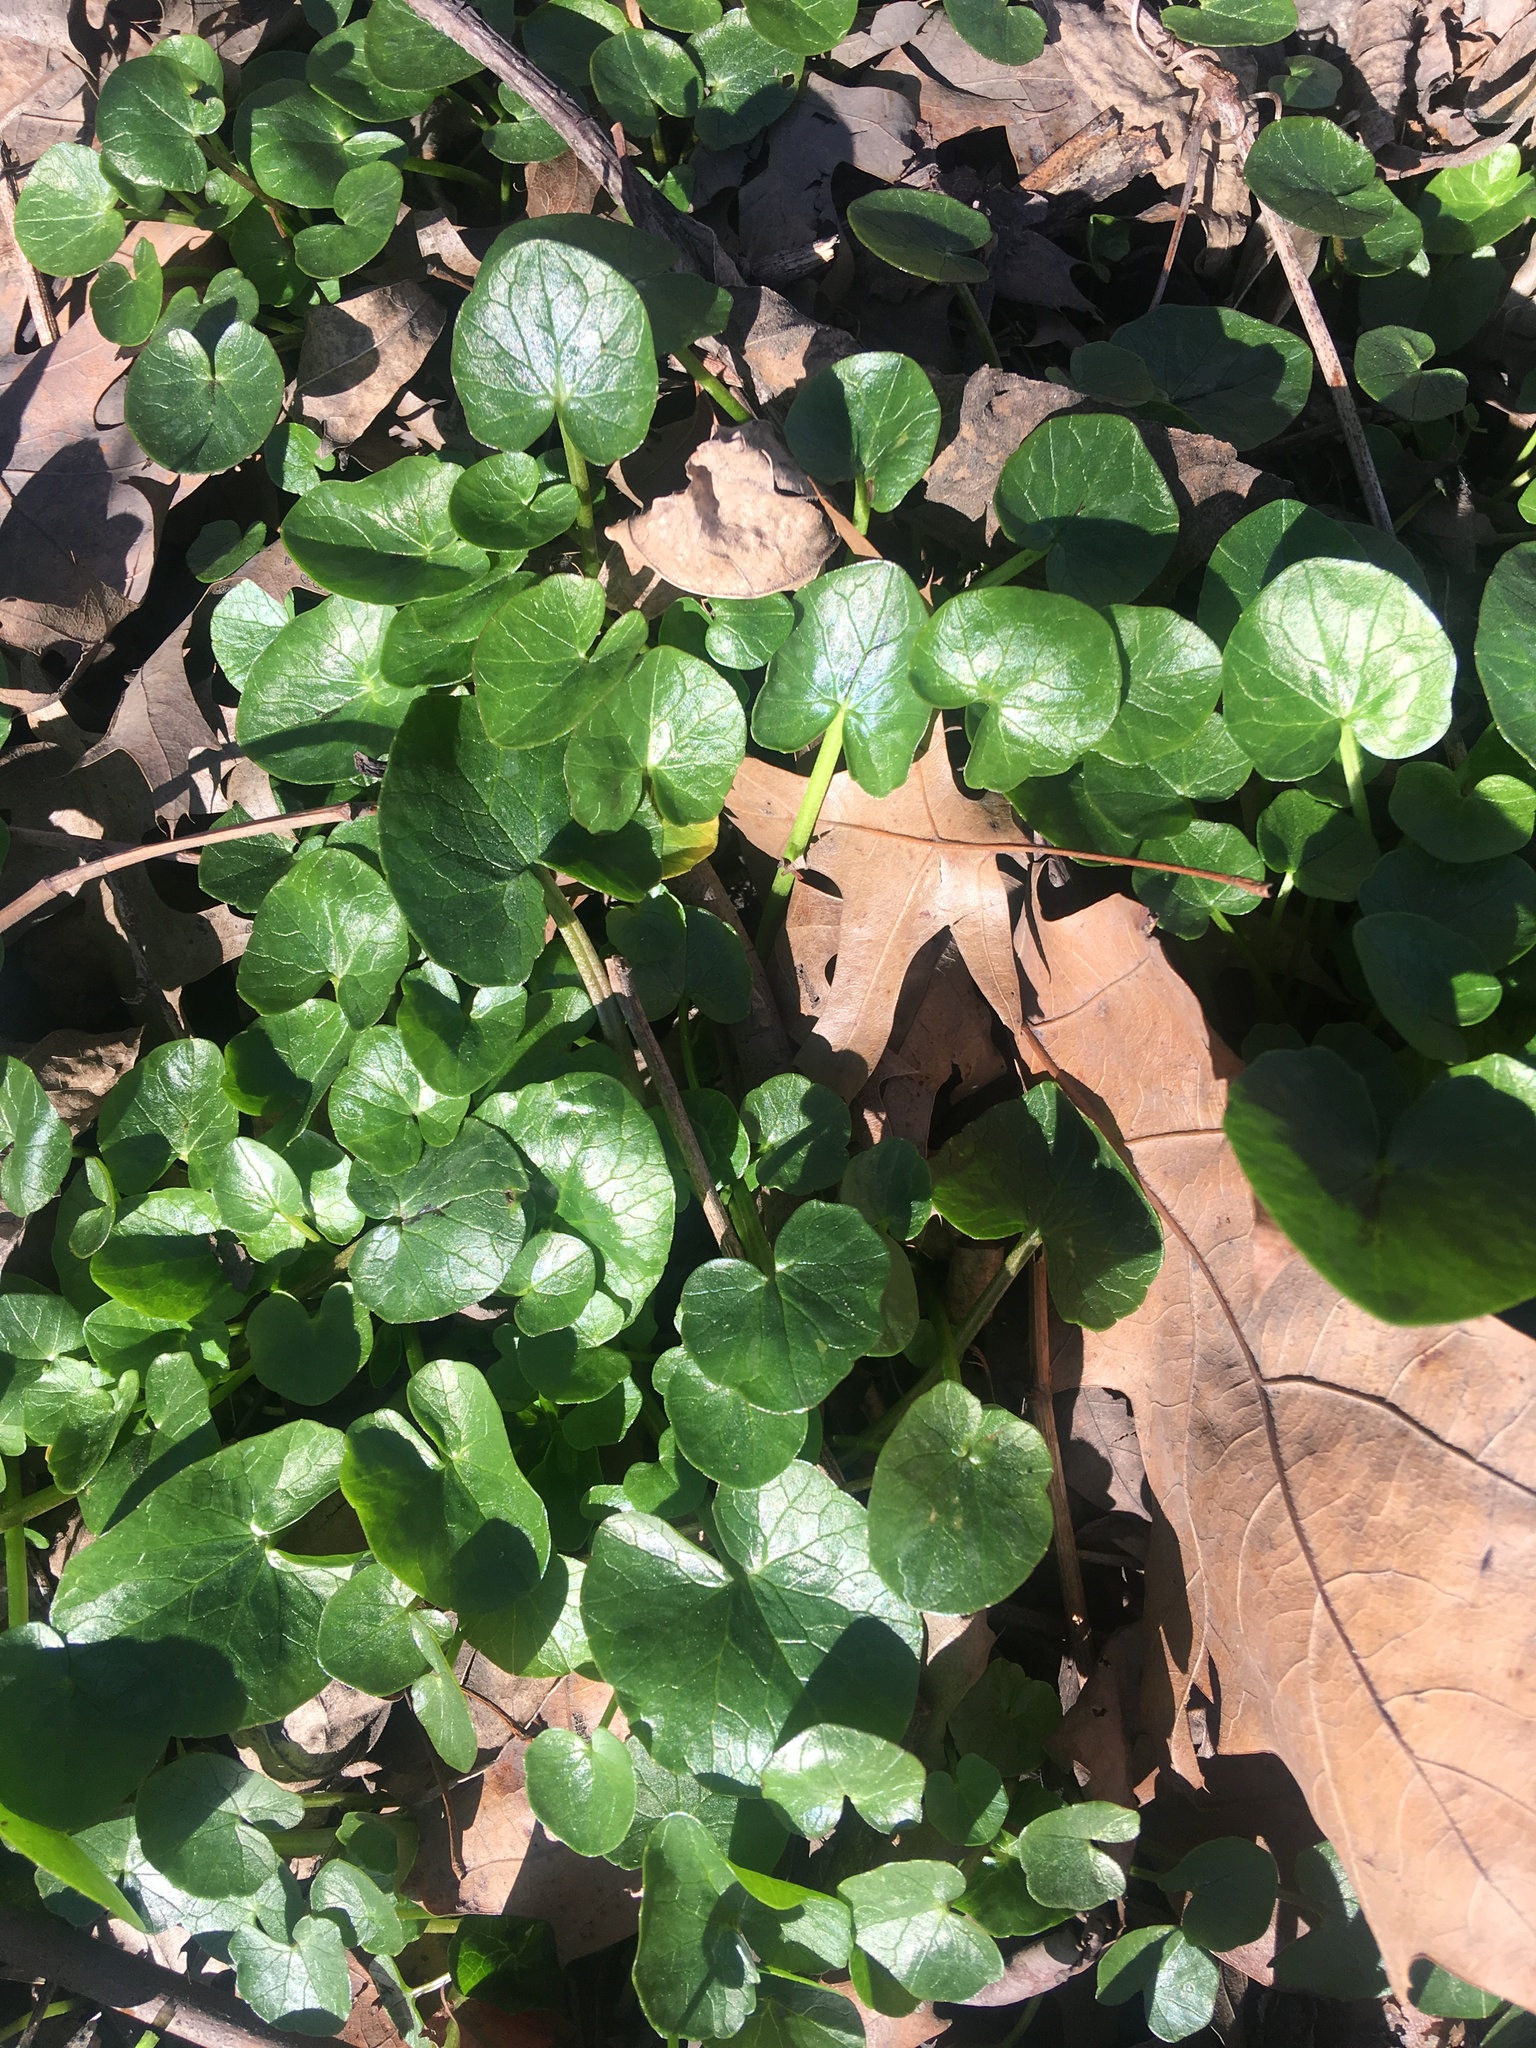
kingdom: Plantae
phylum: Tracheophyta
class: Magnoliopsida
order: Ranunculales
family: Ranunculaceae
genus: Ficaria
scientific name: Ficaria verna
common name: Lesser celandine
